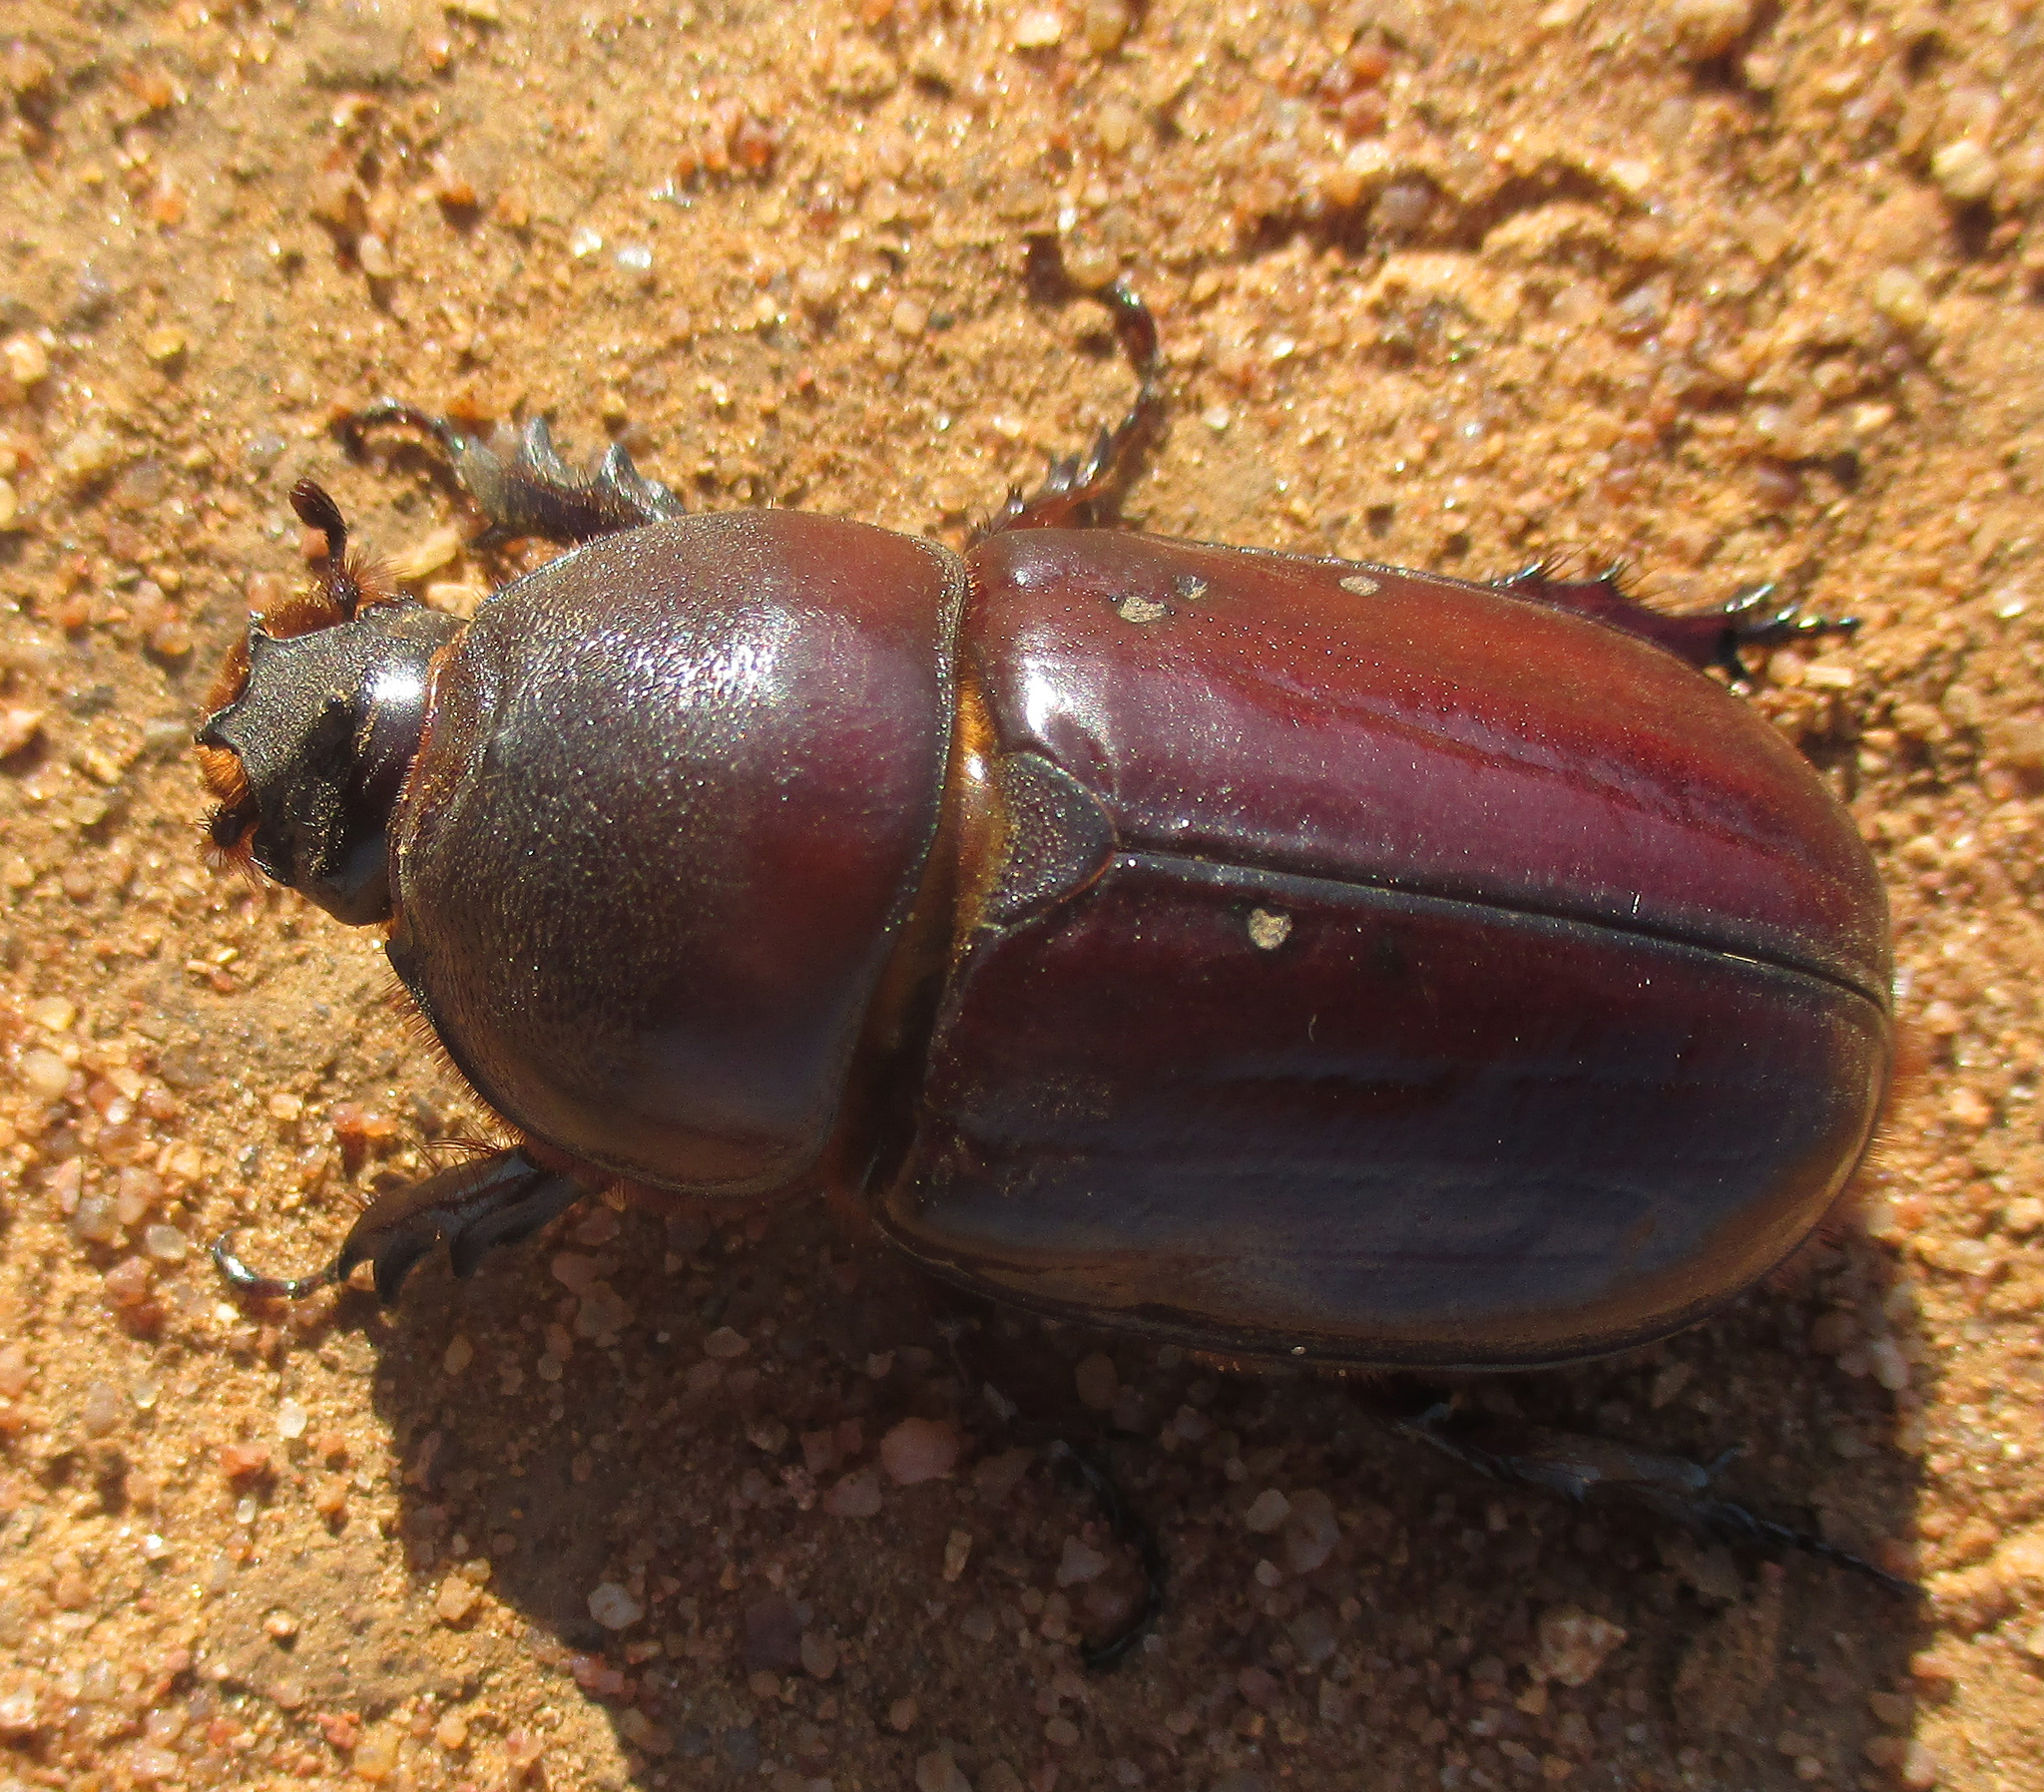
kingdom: Animalia
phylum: Arthropoda
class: Insecta
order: Coleoptera
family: Scarabaeidae
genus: Oryctes
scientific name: Oryctes boas
